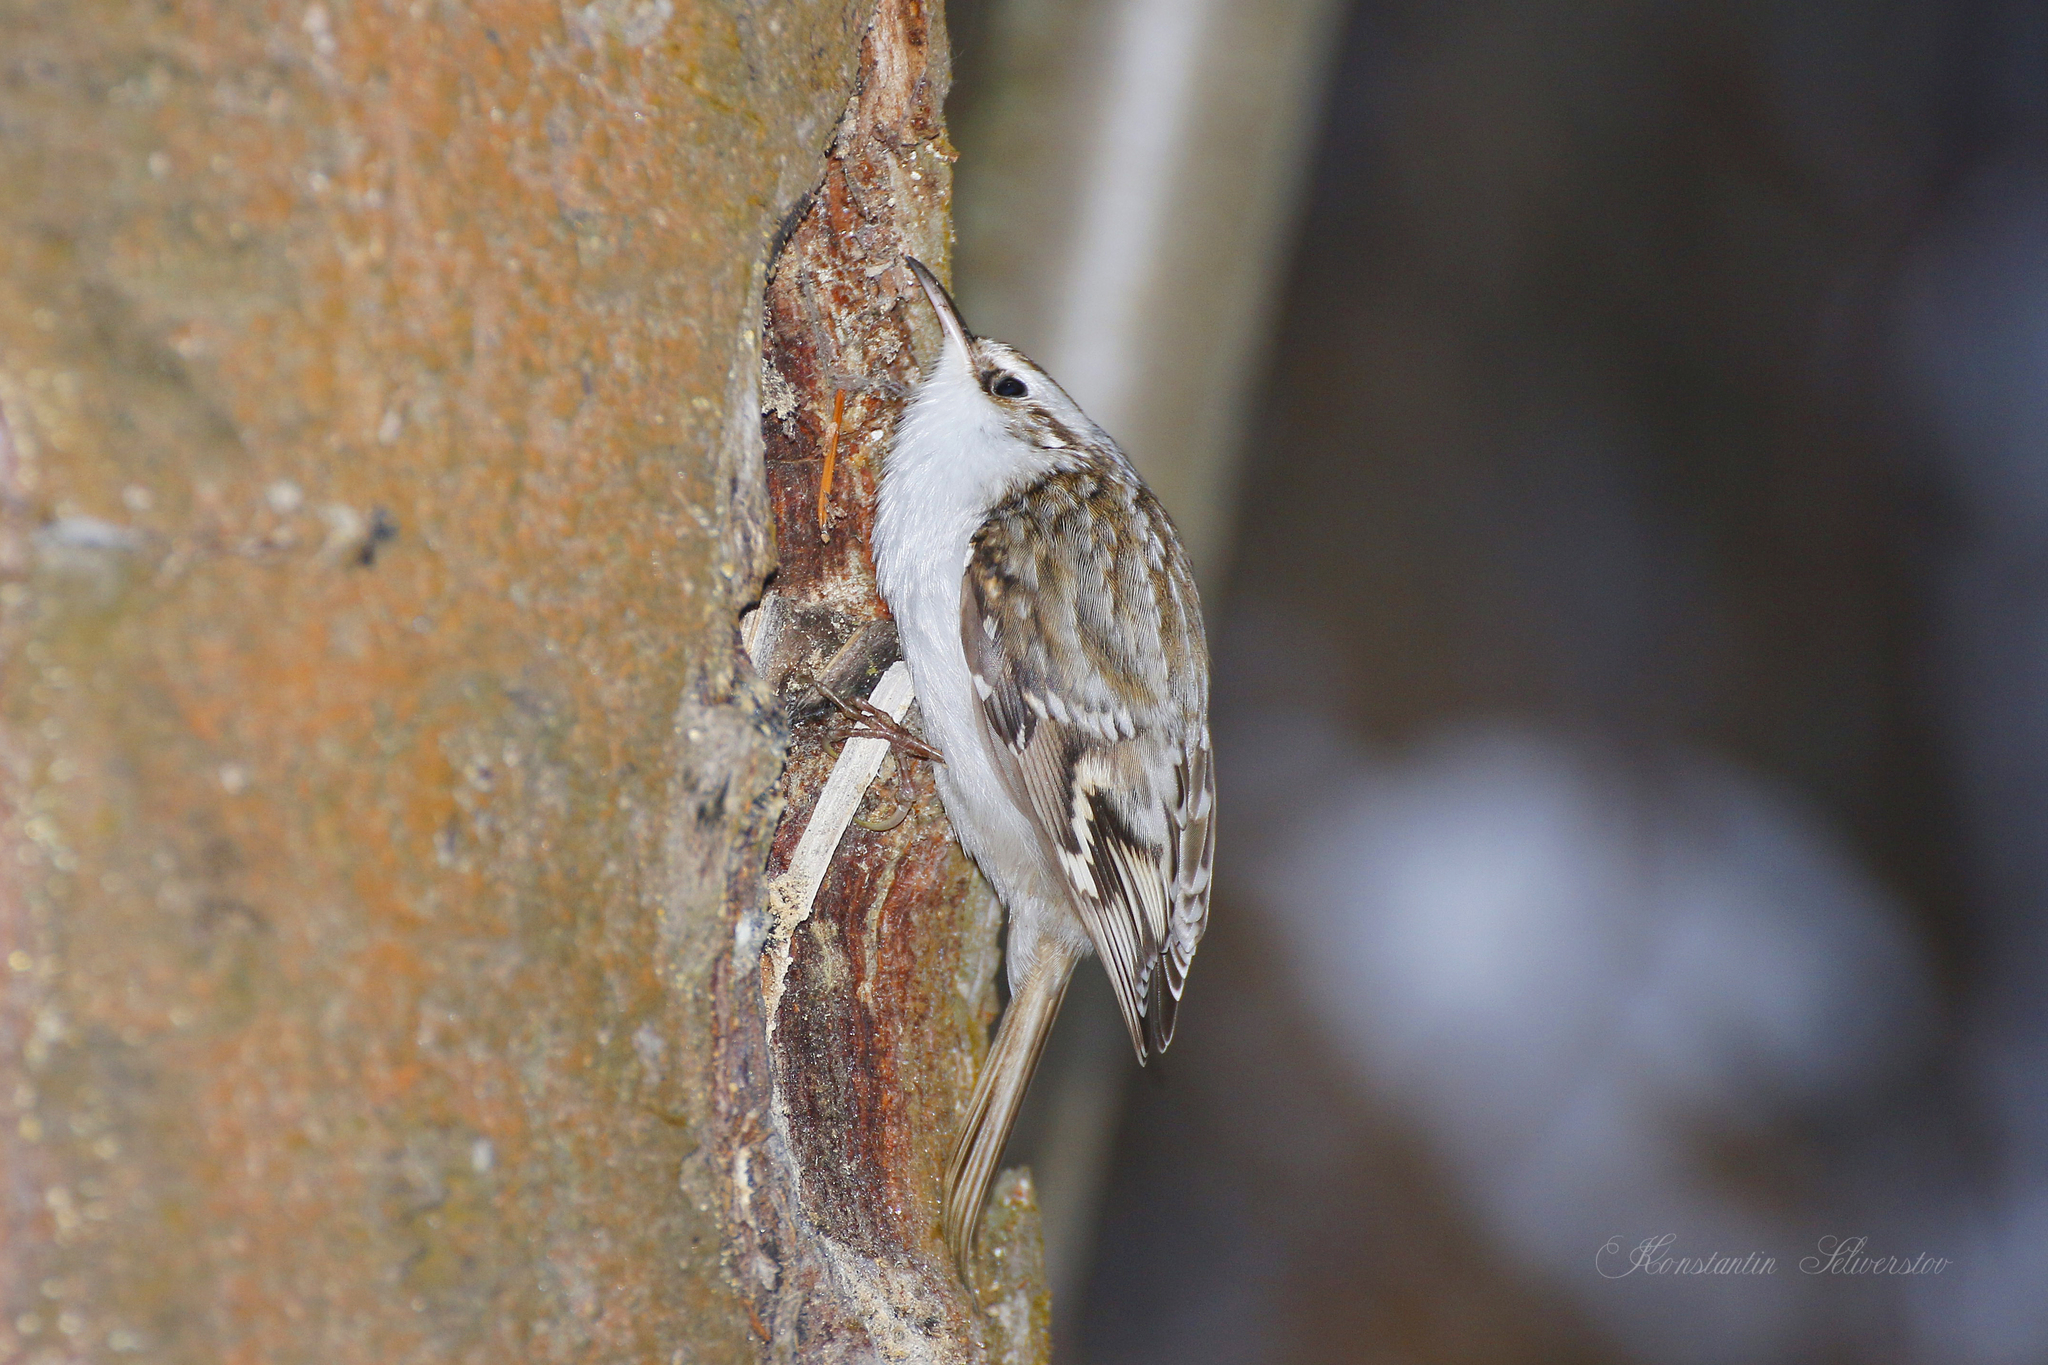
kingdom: Animalia
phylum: Chordata
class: Aves
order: Passeriformes
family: Certhiidae
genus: Certhia
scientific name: Certhia familiaris
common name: Eurasian treecreeper
